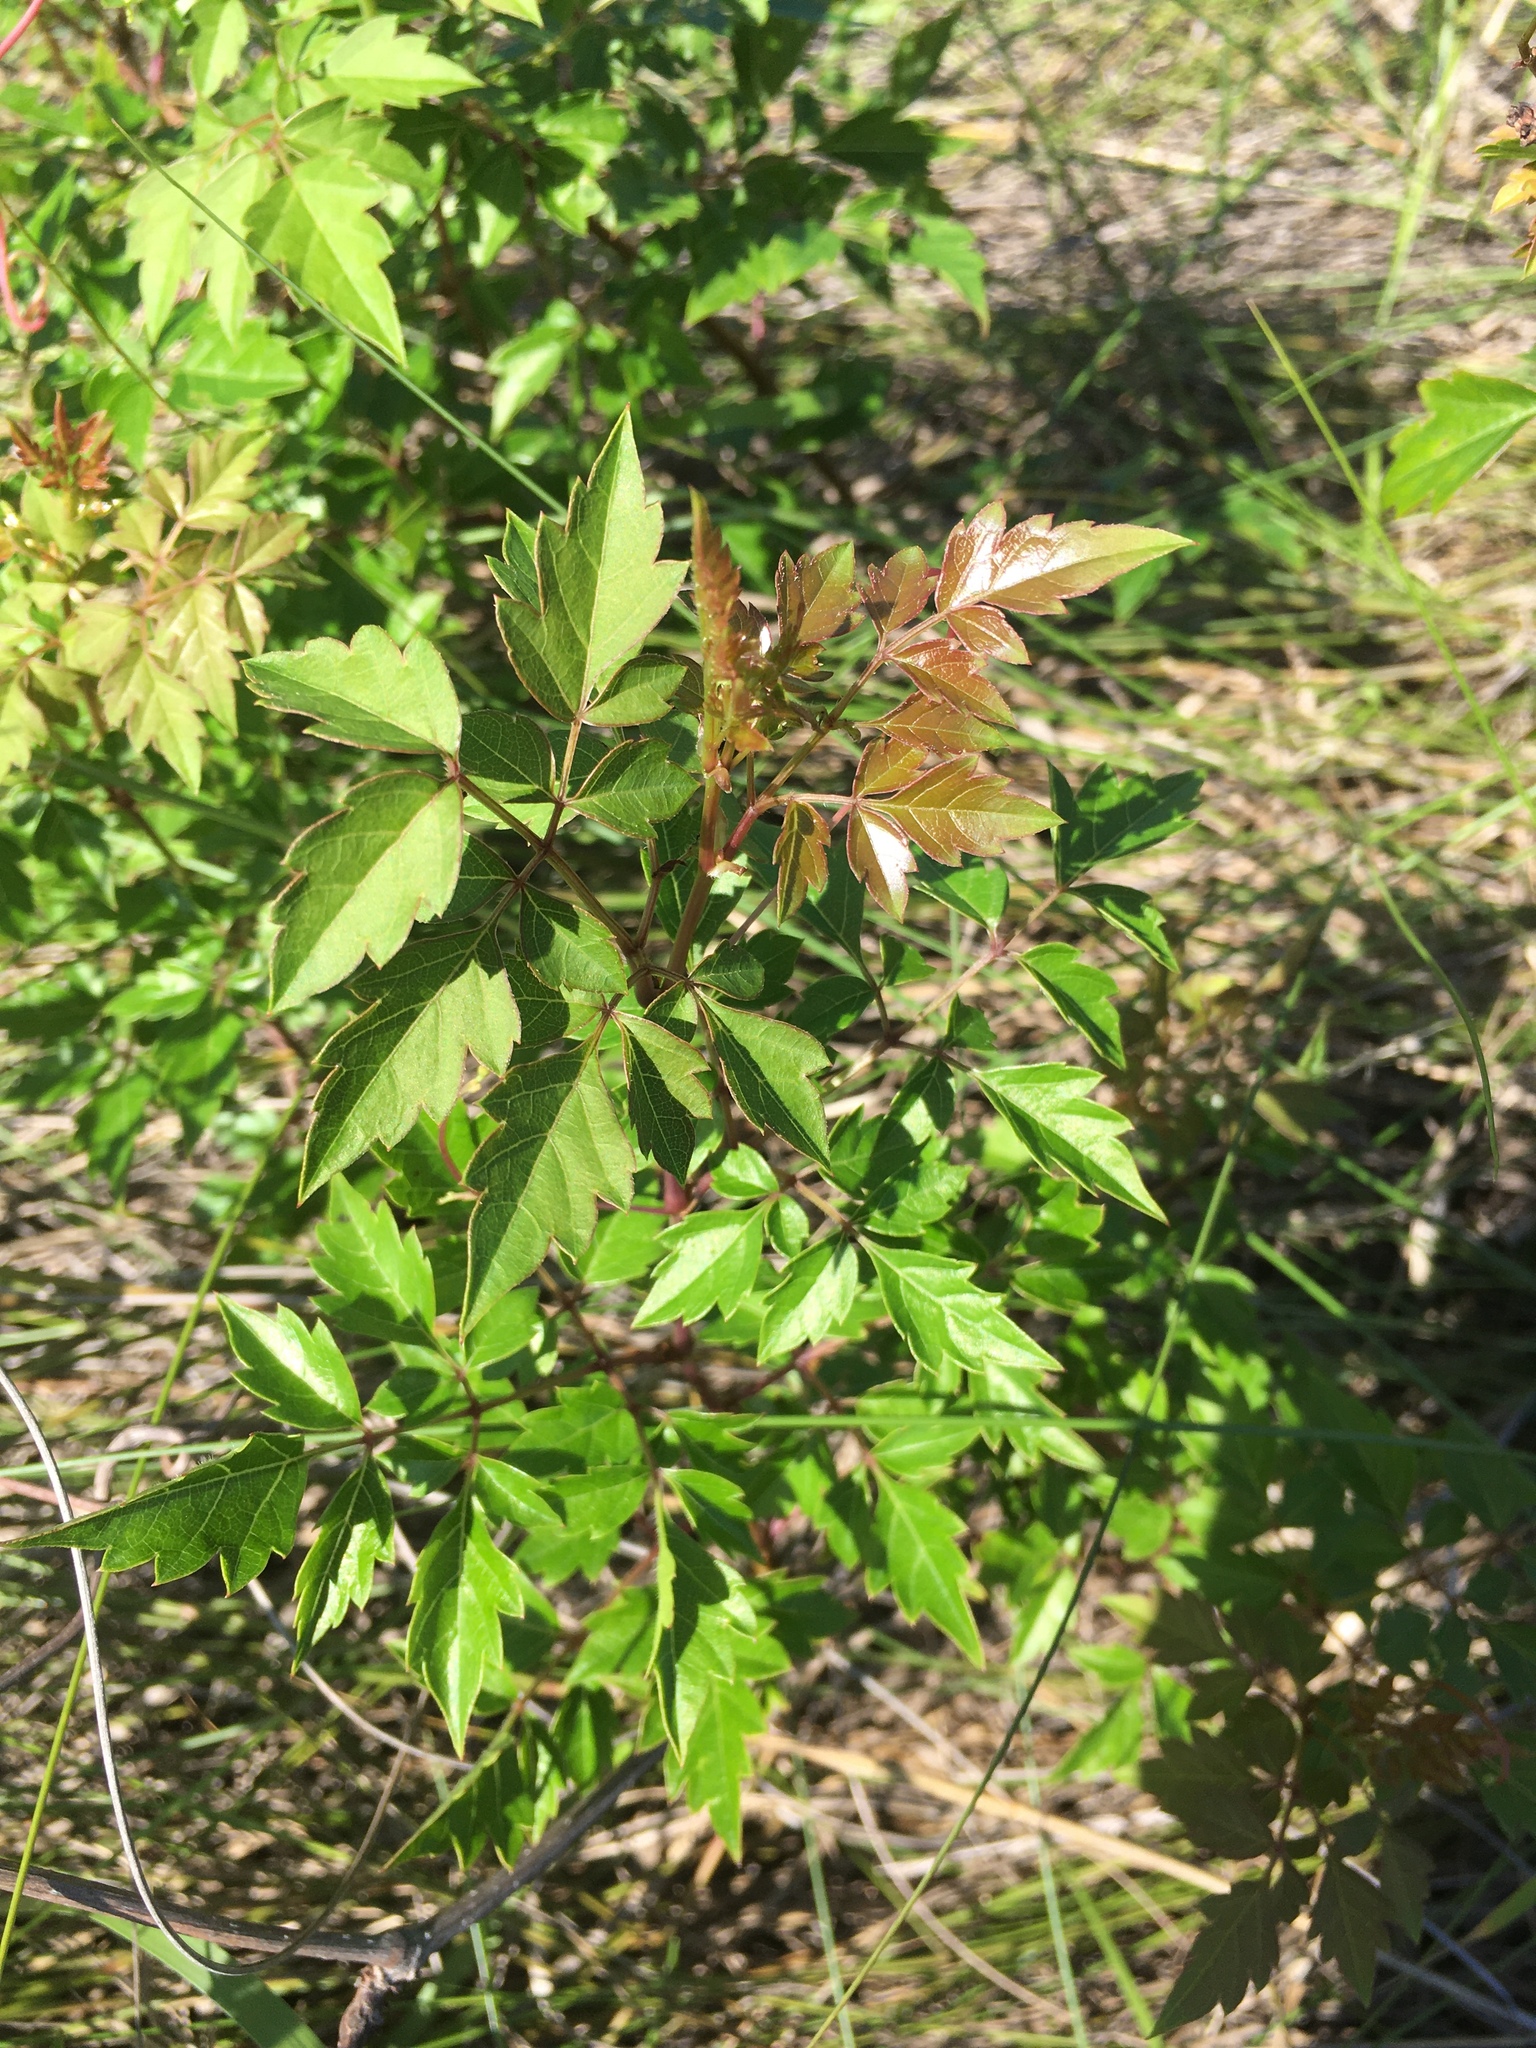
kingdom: Plantae
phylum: Tracheophyta
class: Magnoliopsida
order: Vitales
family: Vitaceae
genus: Nekemias
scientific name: Nekemias arborea
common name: Peppervine
